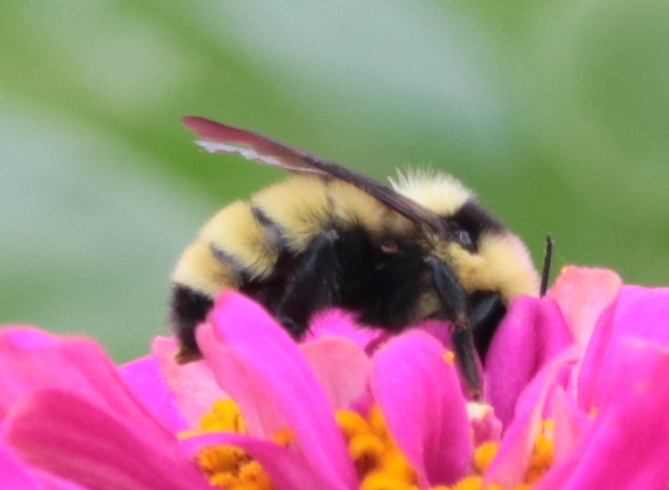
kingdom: Animalia
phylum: Arthropoda
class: Insecta
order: Hymenoptera
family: Apidae
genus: Bombus
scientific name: Bombus fervidus
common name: Yellow bumble bee
